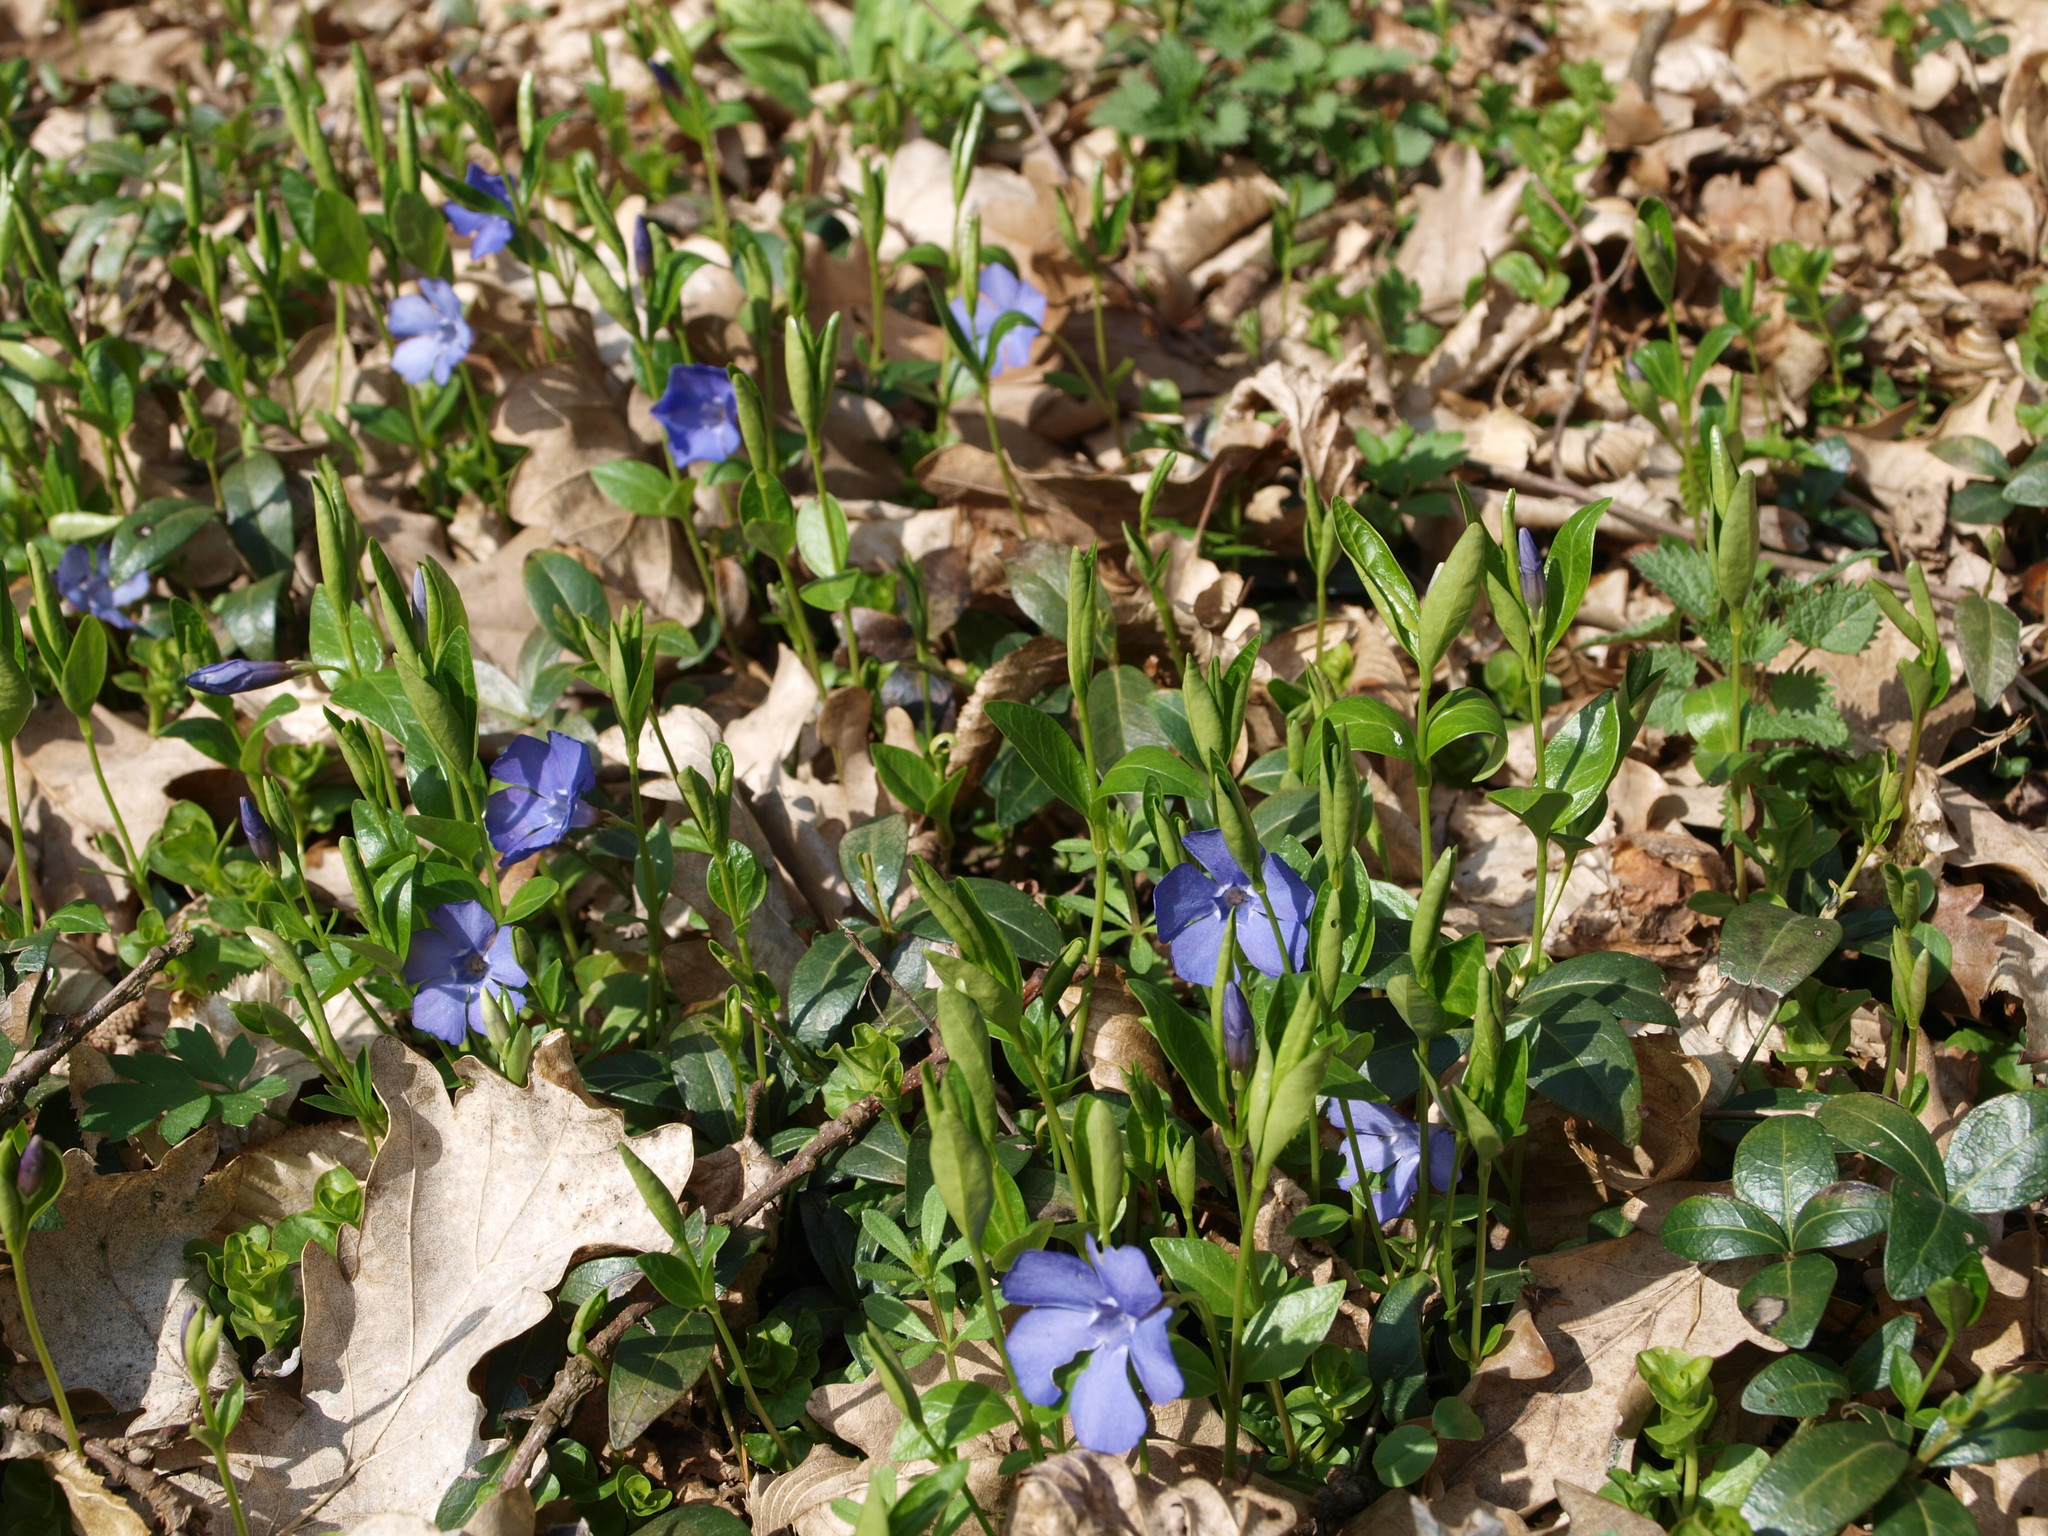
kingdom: Plantae
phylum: Tracheophyta
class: Magnoliopsida
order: Gentianales
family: Apocynaceae
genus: Vinca
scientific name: Vinca minor
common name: Lesser periwinkle
